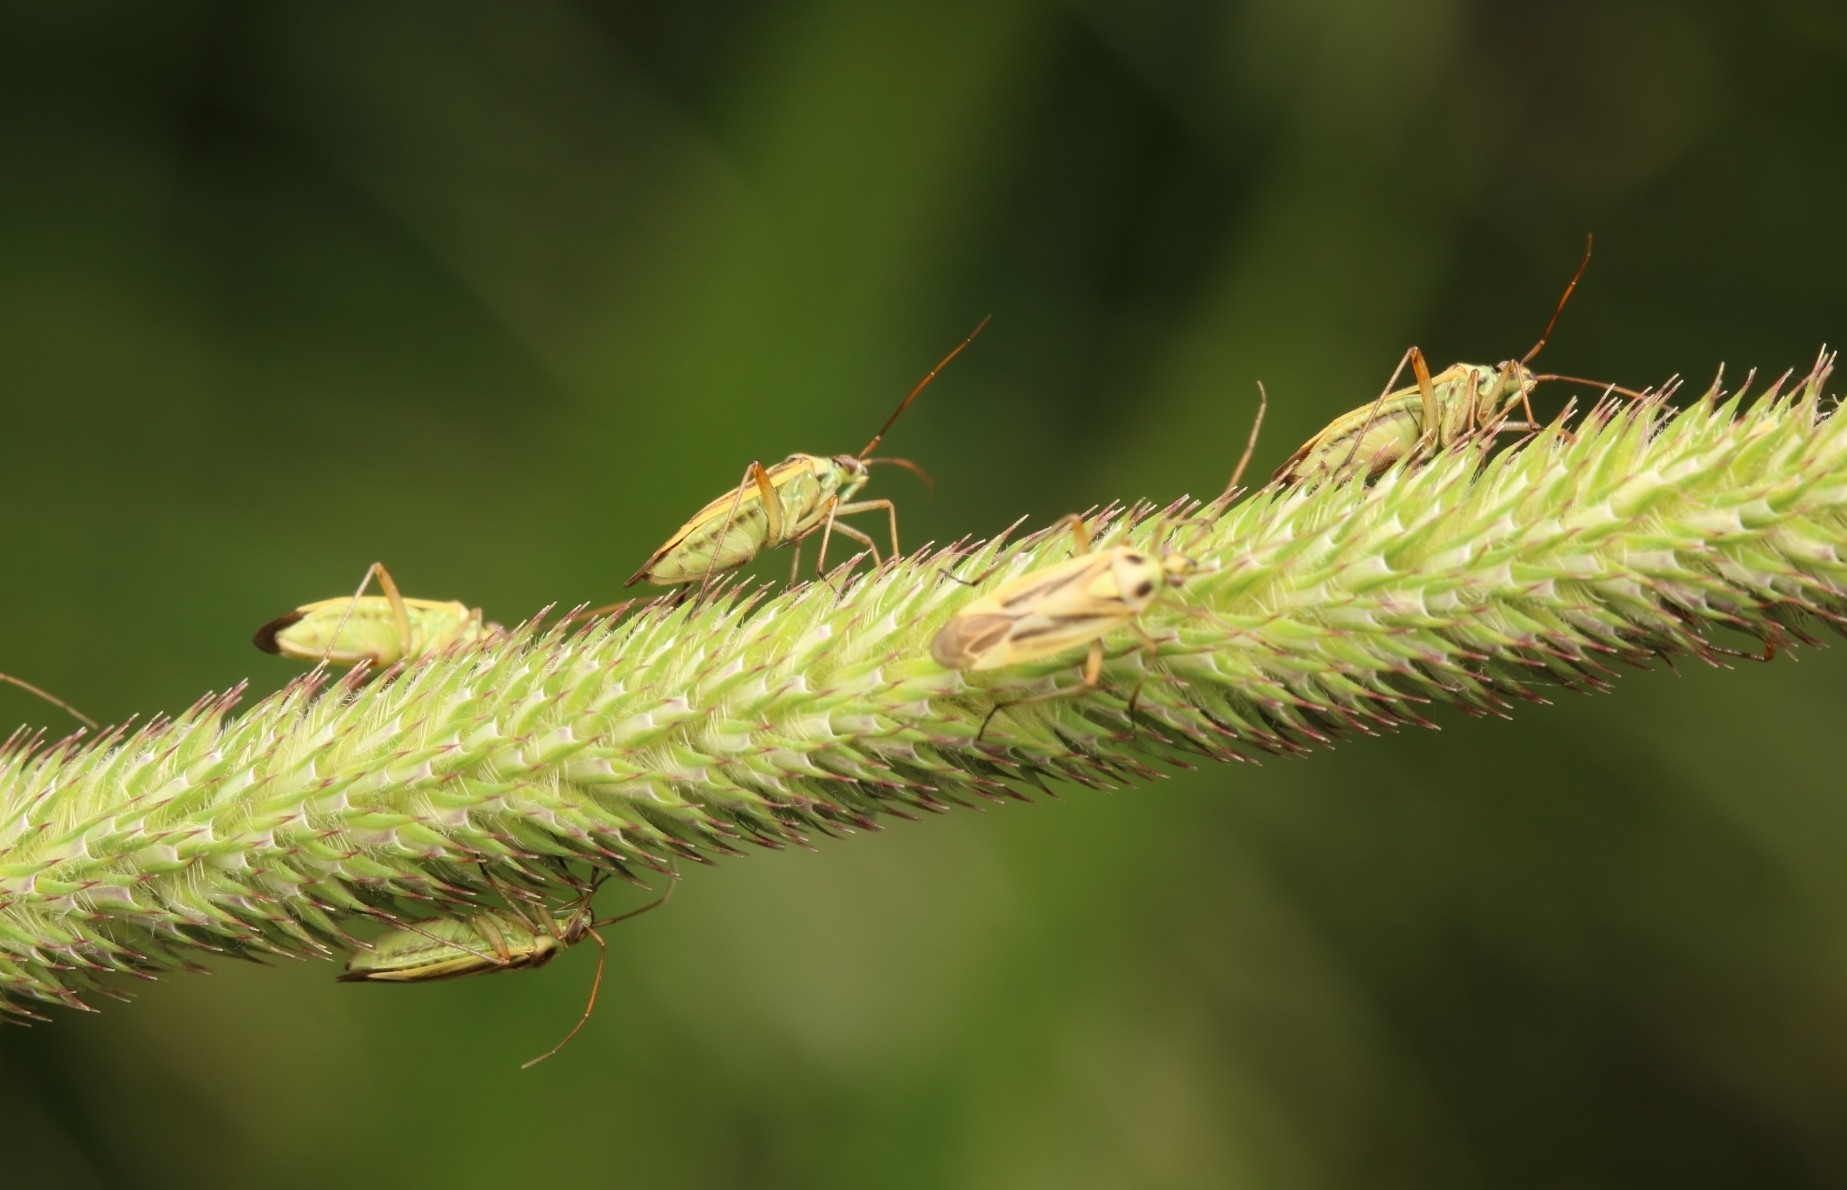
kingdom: Animalia
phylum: Arthropoda
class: Insecta
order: Hemiptera
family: Miridae
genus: Stenotus
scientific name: Stenotus binotatus
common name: Plant bug
